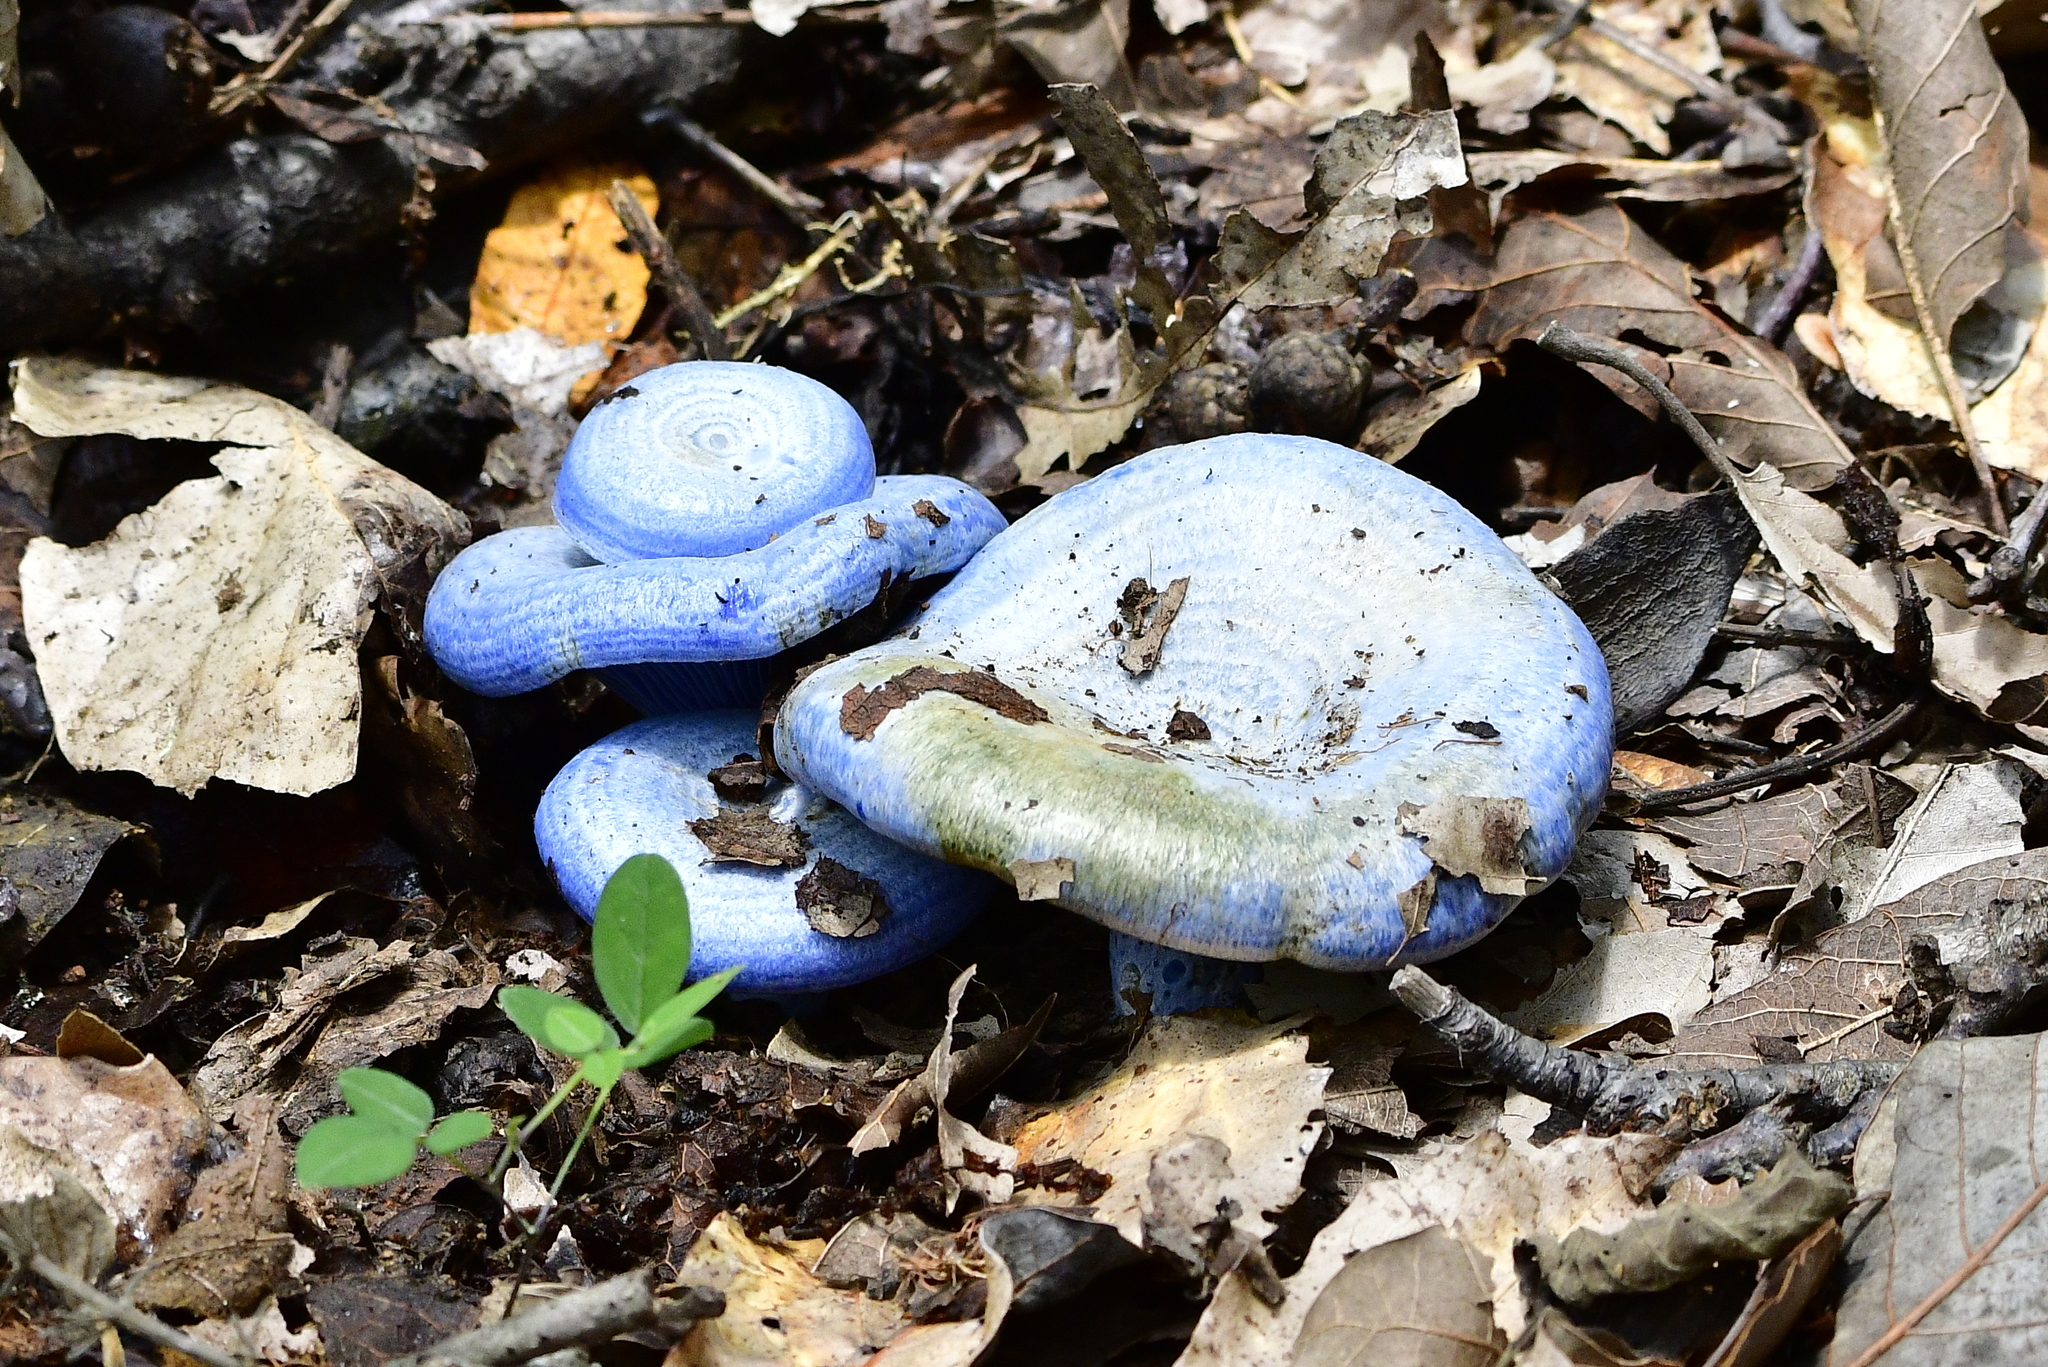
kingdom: Fungi
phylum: Basidiomycota
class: Agaricomycetes
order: Russulales
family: Russulaceae
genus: Lactarius
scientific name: Lactarius indigo
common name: Indigo milk cap
